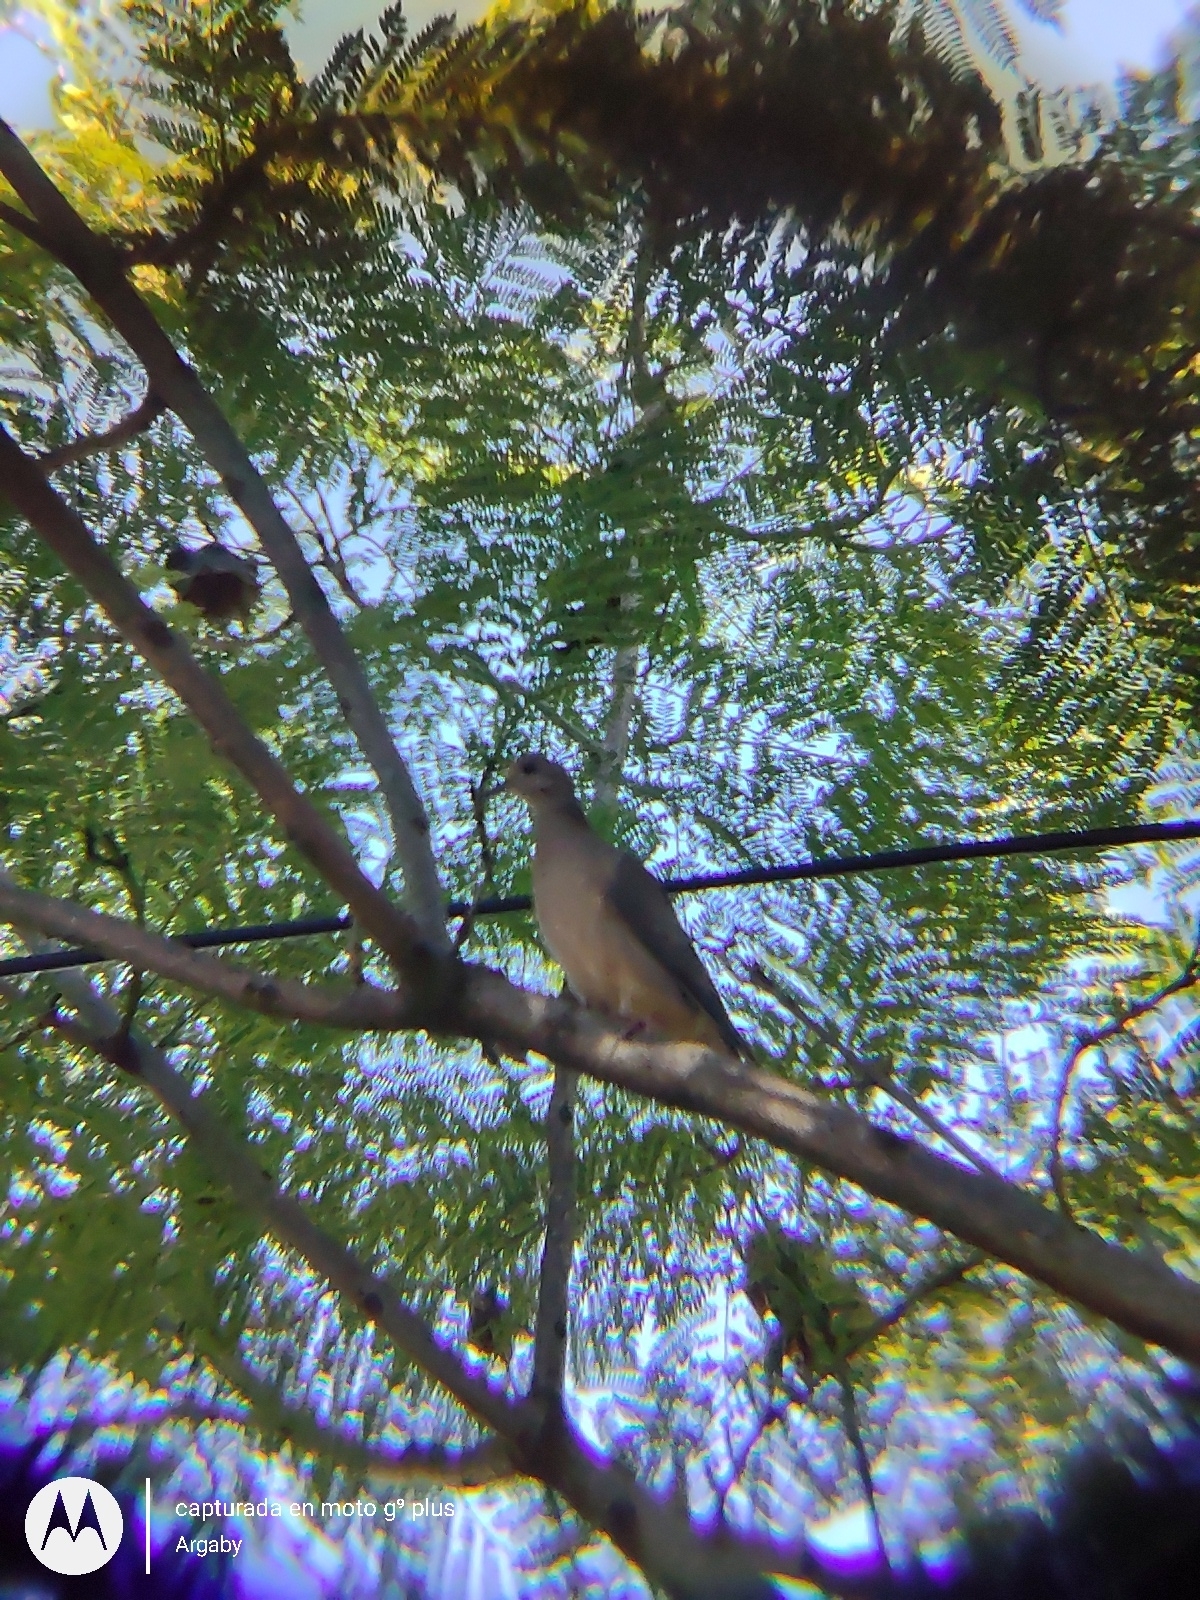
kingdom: Animalia
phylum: Chordata
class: Aves
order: Columbiformes
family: Columbidae
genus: Zenaida
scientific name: Zenaida auriculata
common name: Eared dove
